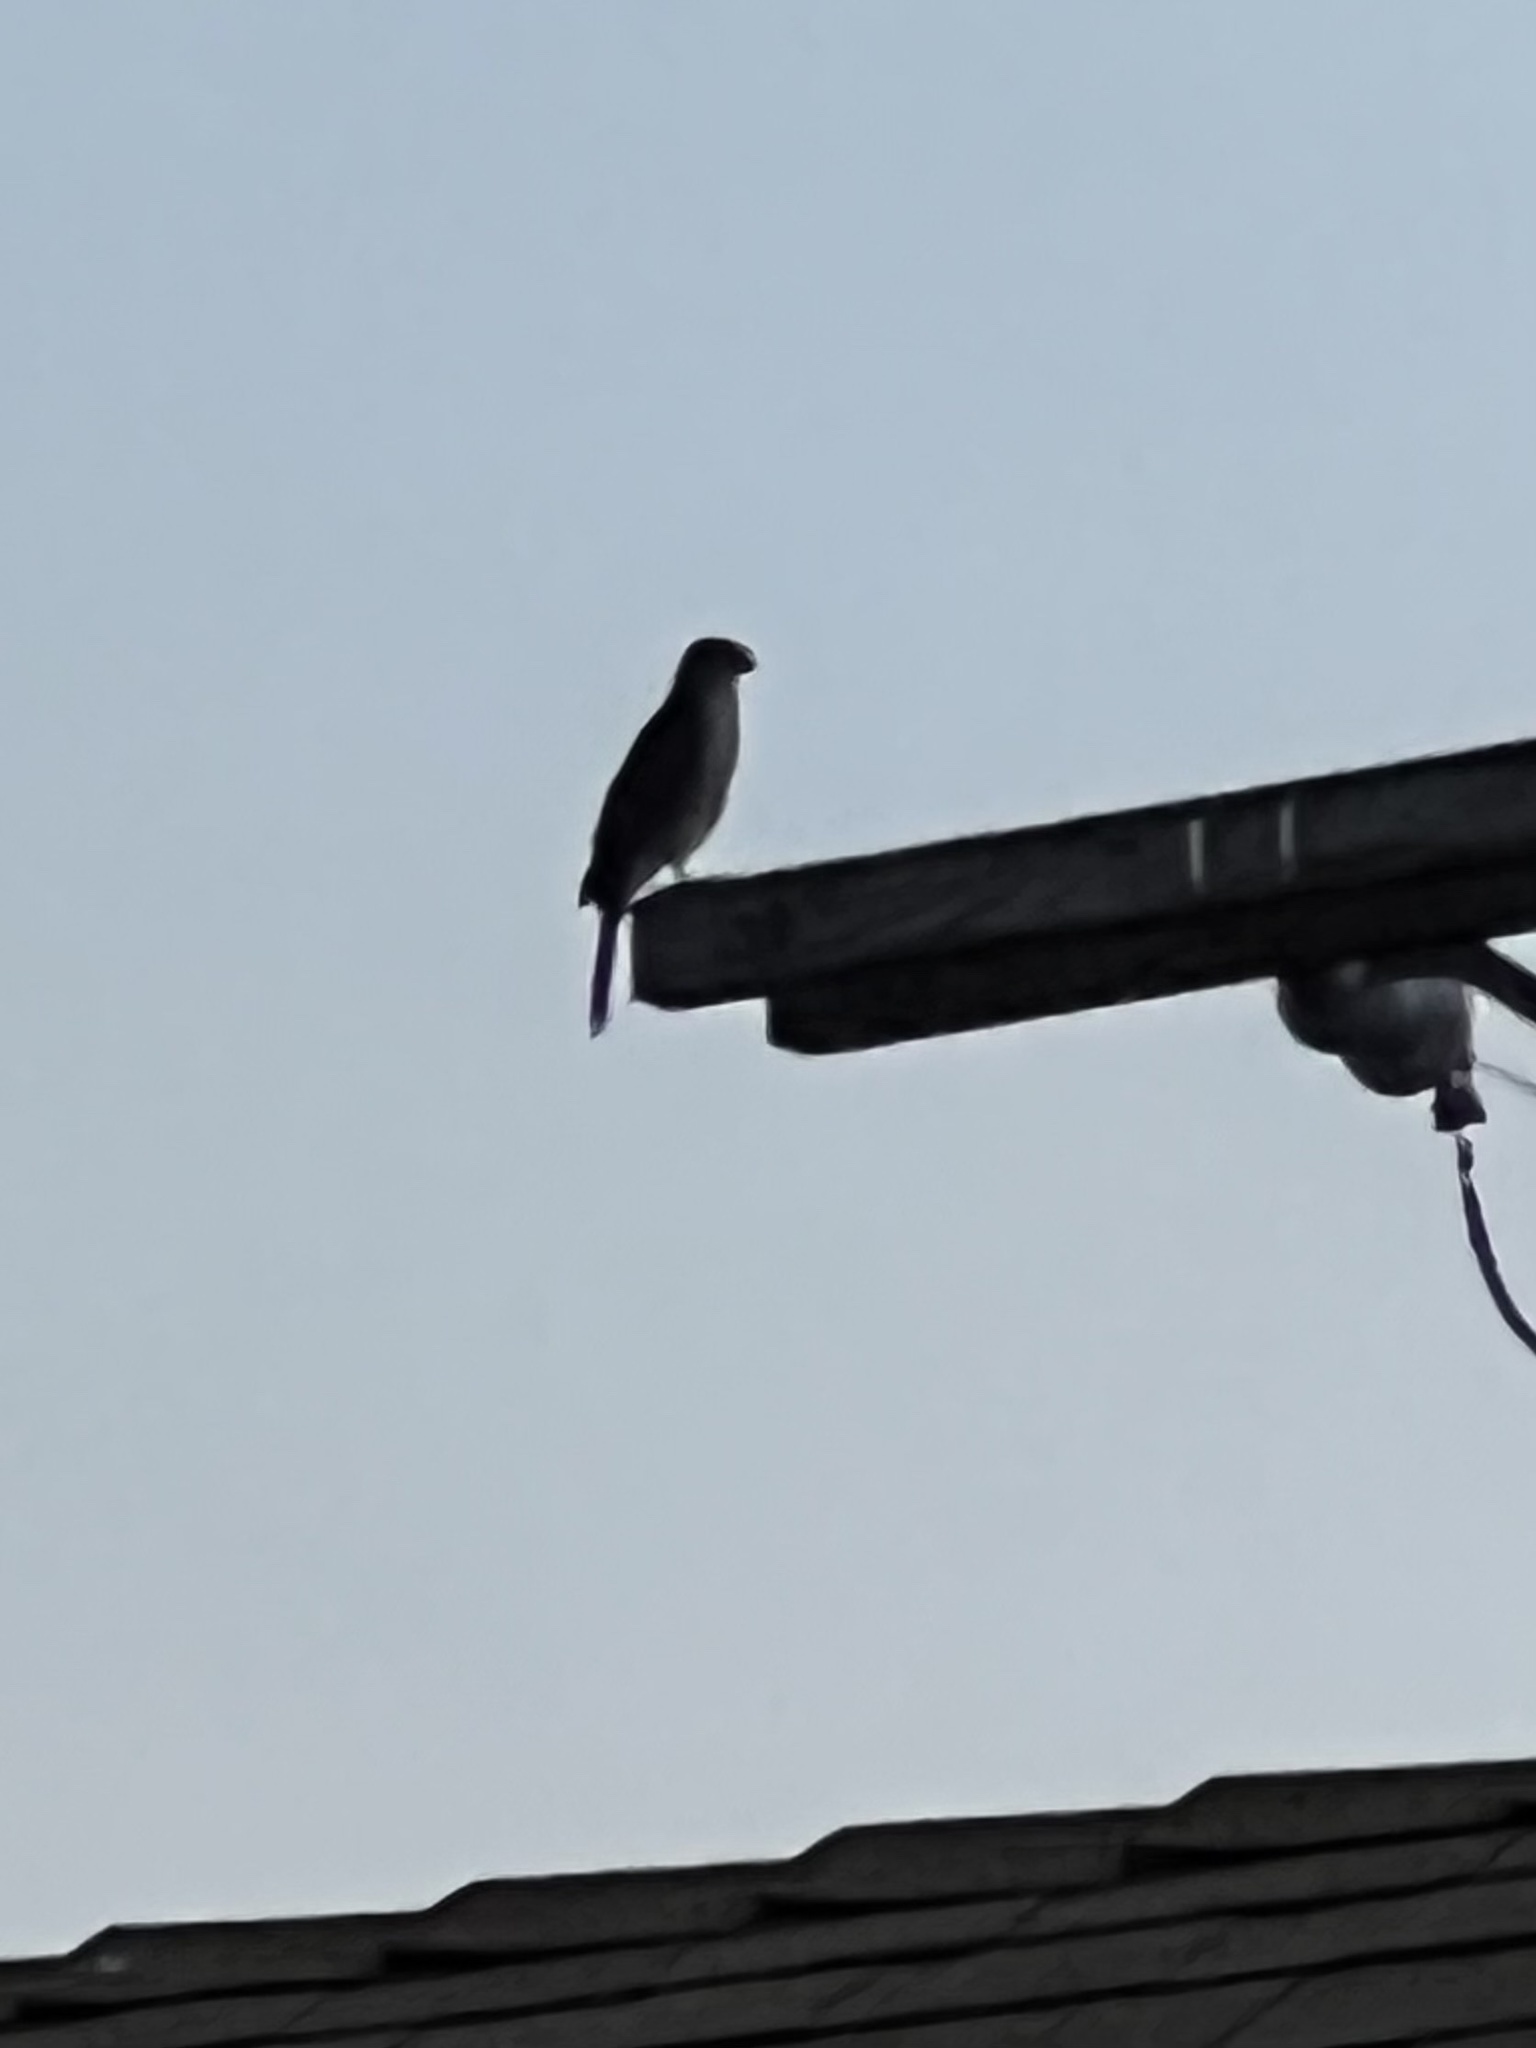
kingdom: Animalia
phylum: Chordata
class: Aves
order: Accipitriformes
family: Accipitridae
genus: Accipiter
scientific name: Accipiter cooperii
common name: Cooper's hawk
